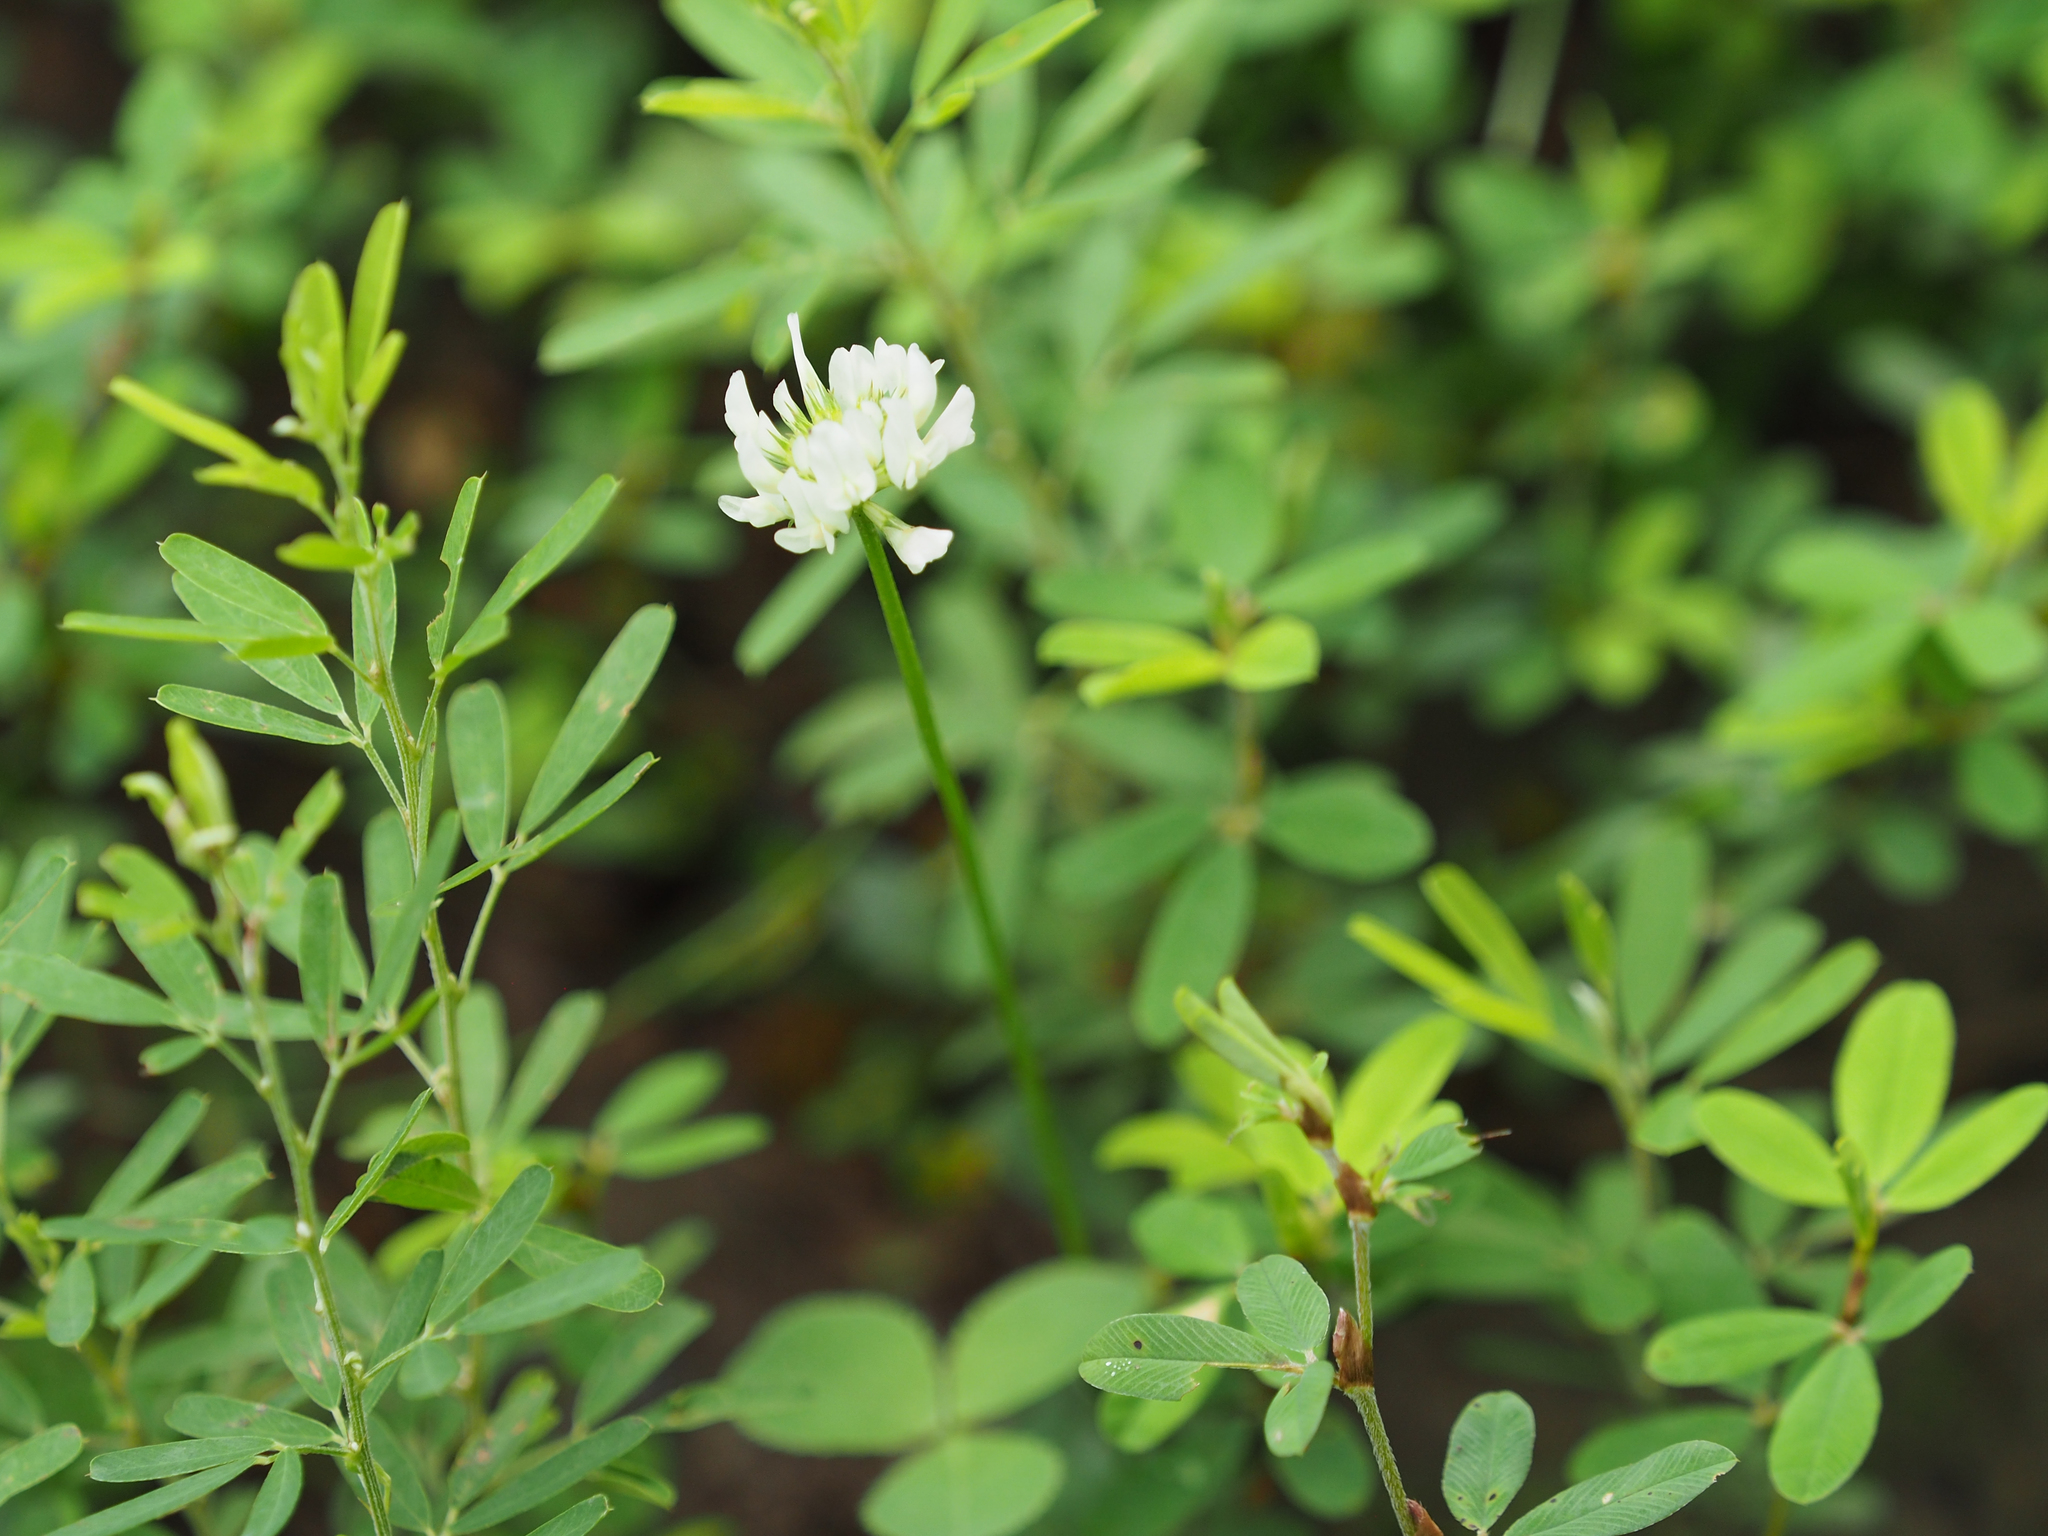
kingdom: Plantae
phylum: Tracheophyta
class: Magnoliopsida
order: Fabales
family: Fabaceae
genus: Trifolium
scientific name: Trifolium repens
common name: White clover
